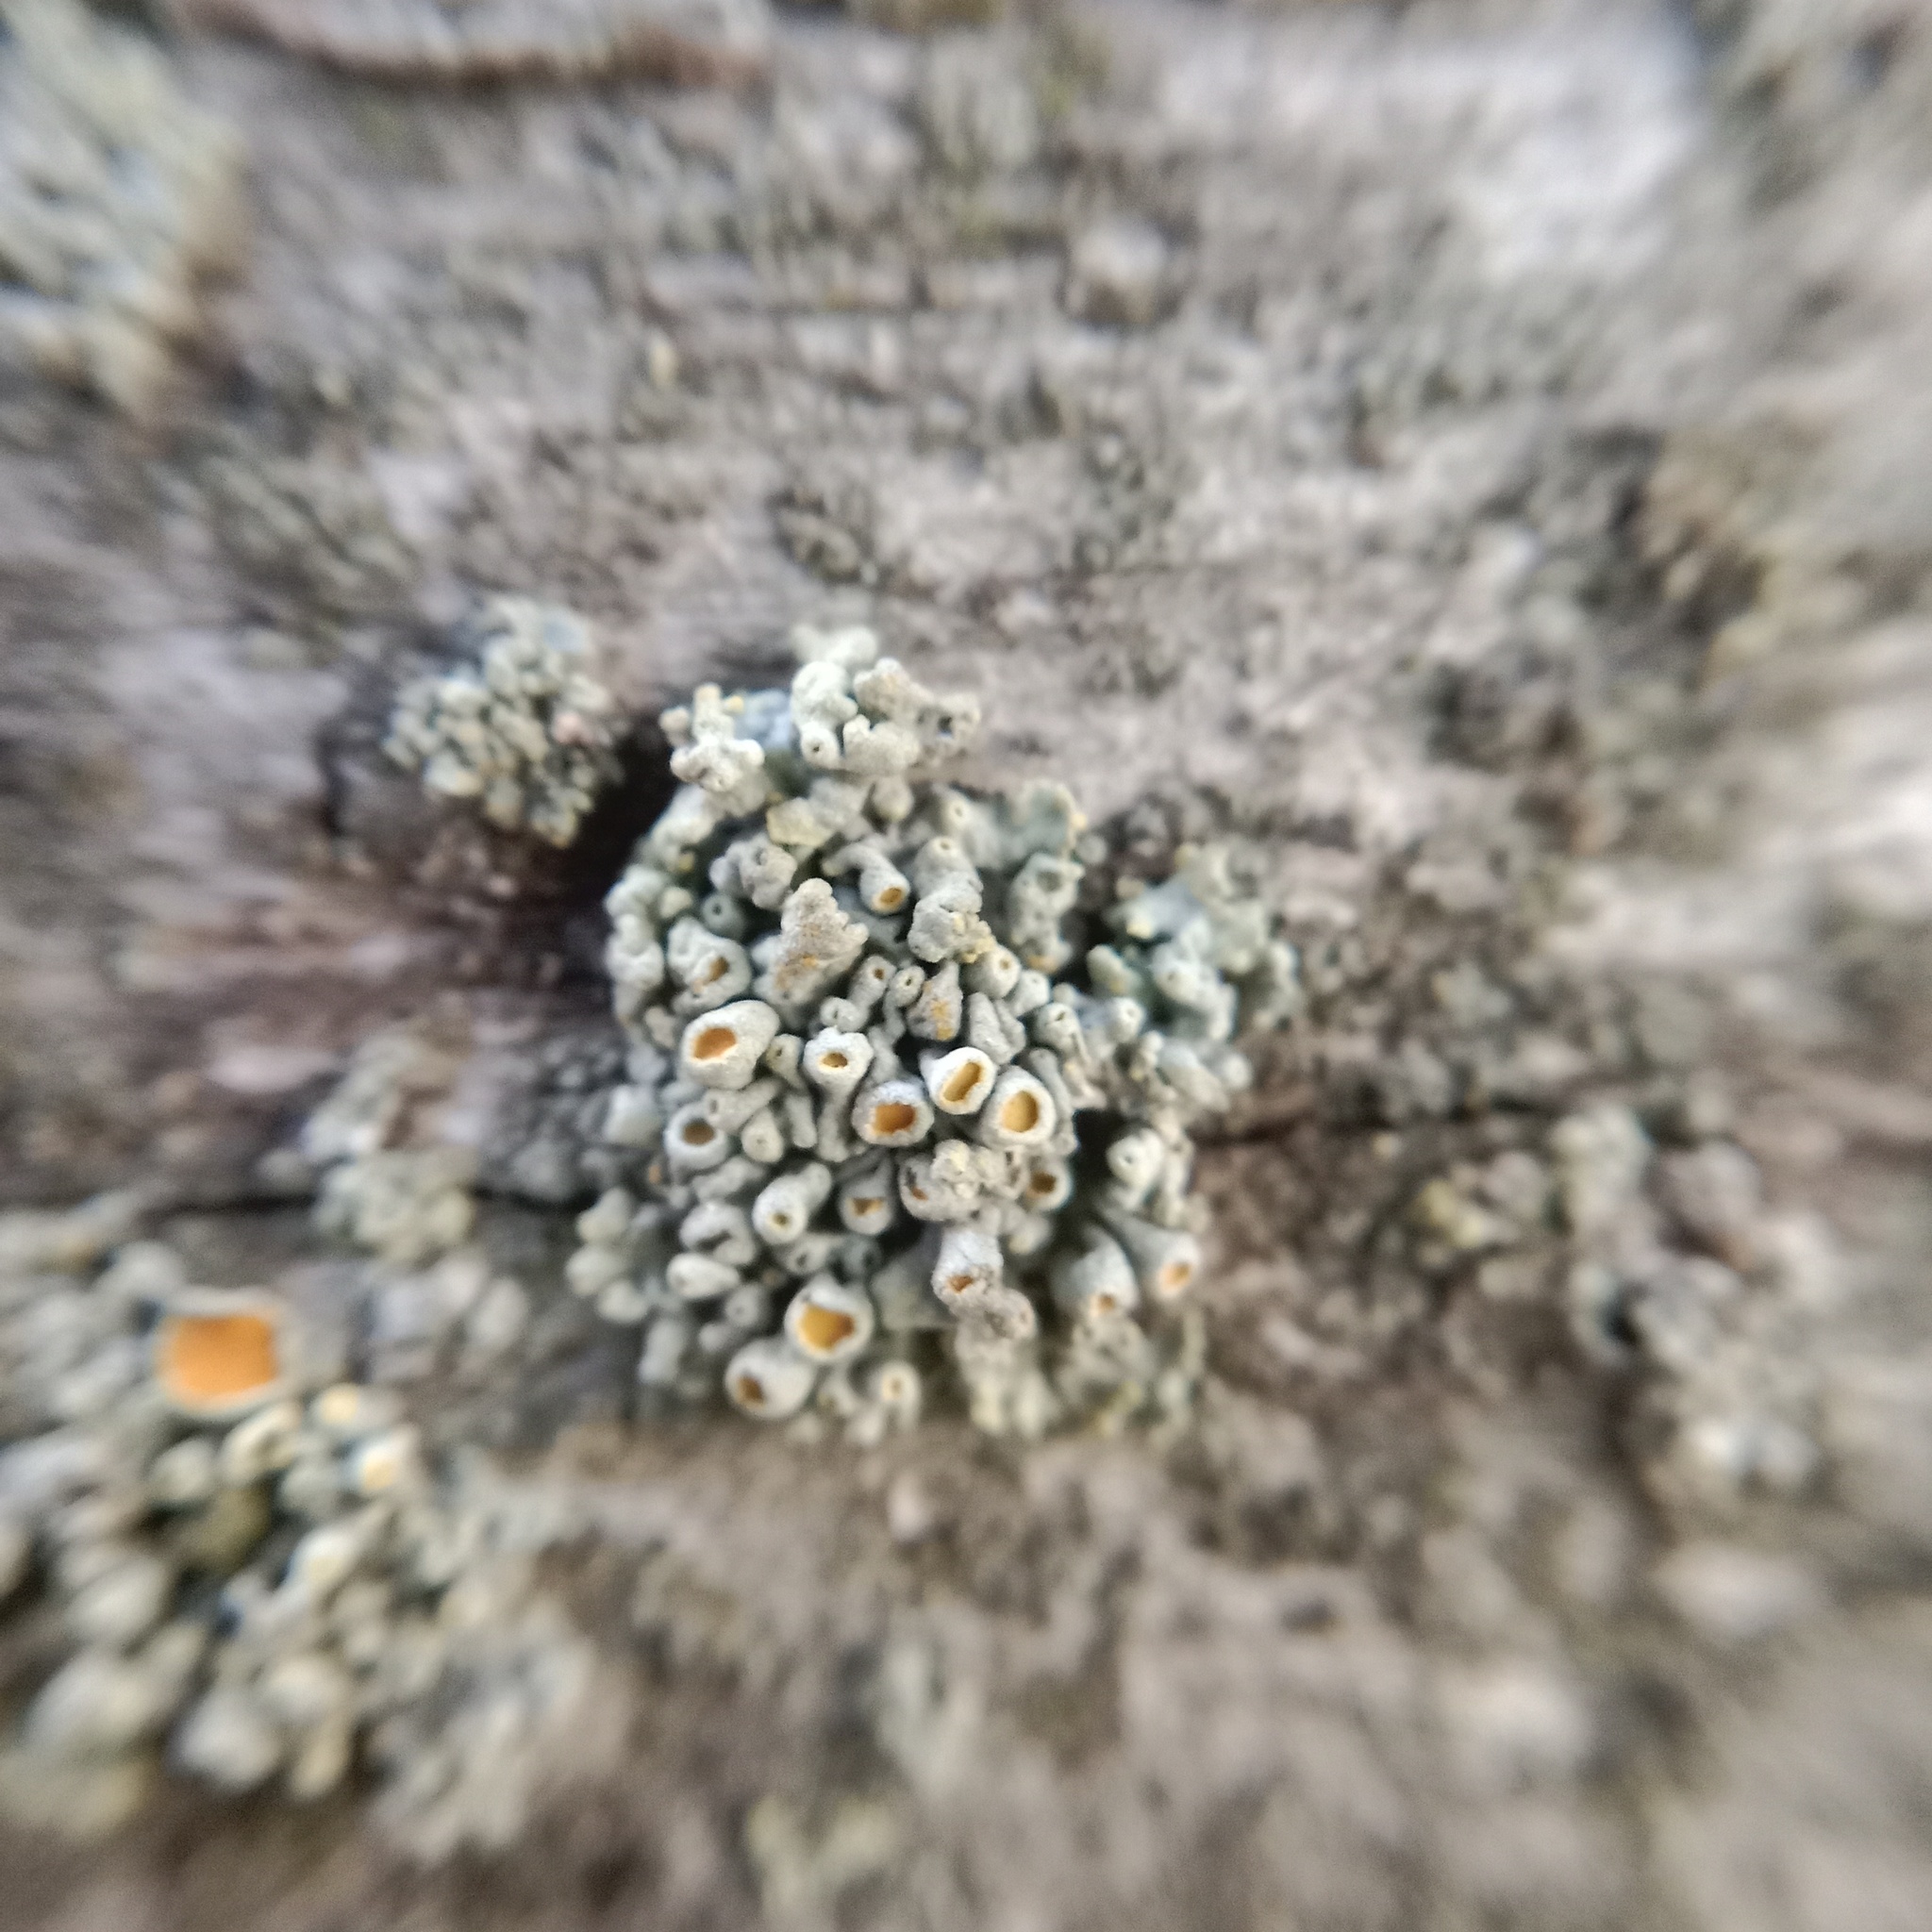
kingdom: Fungi
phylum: Ascomycota
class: Lecanoromycetes
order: Teloschistales
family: Teloschistaceae
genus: Polycauliona
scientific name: Polycauliona polycarpa
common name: Pin-cushion sunburst lichen
